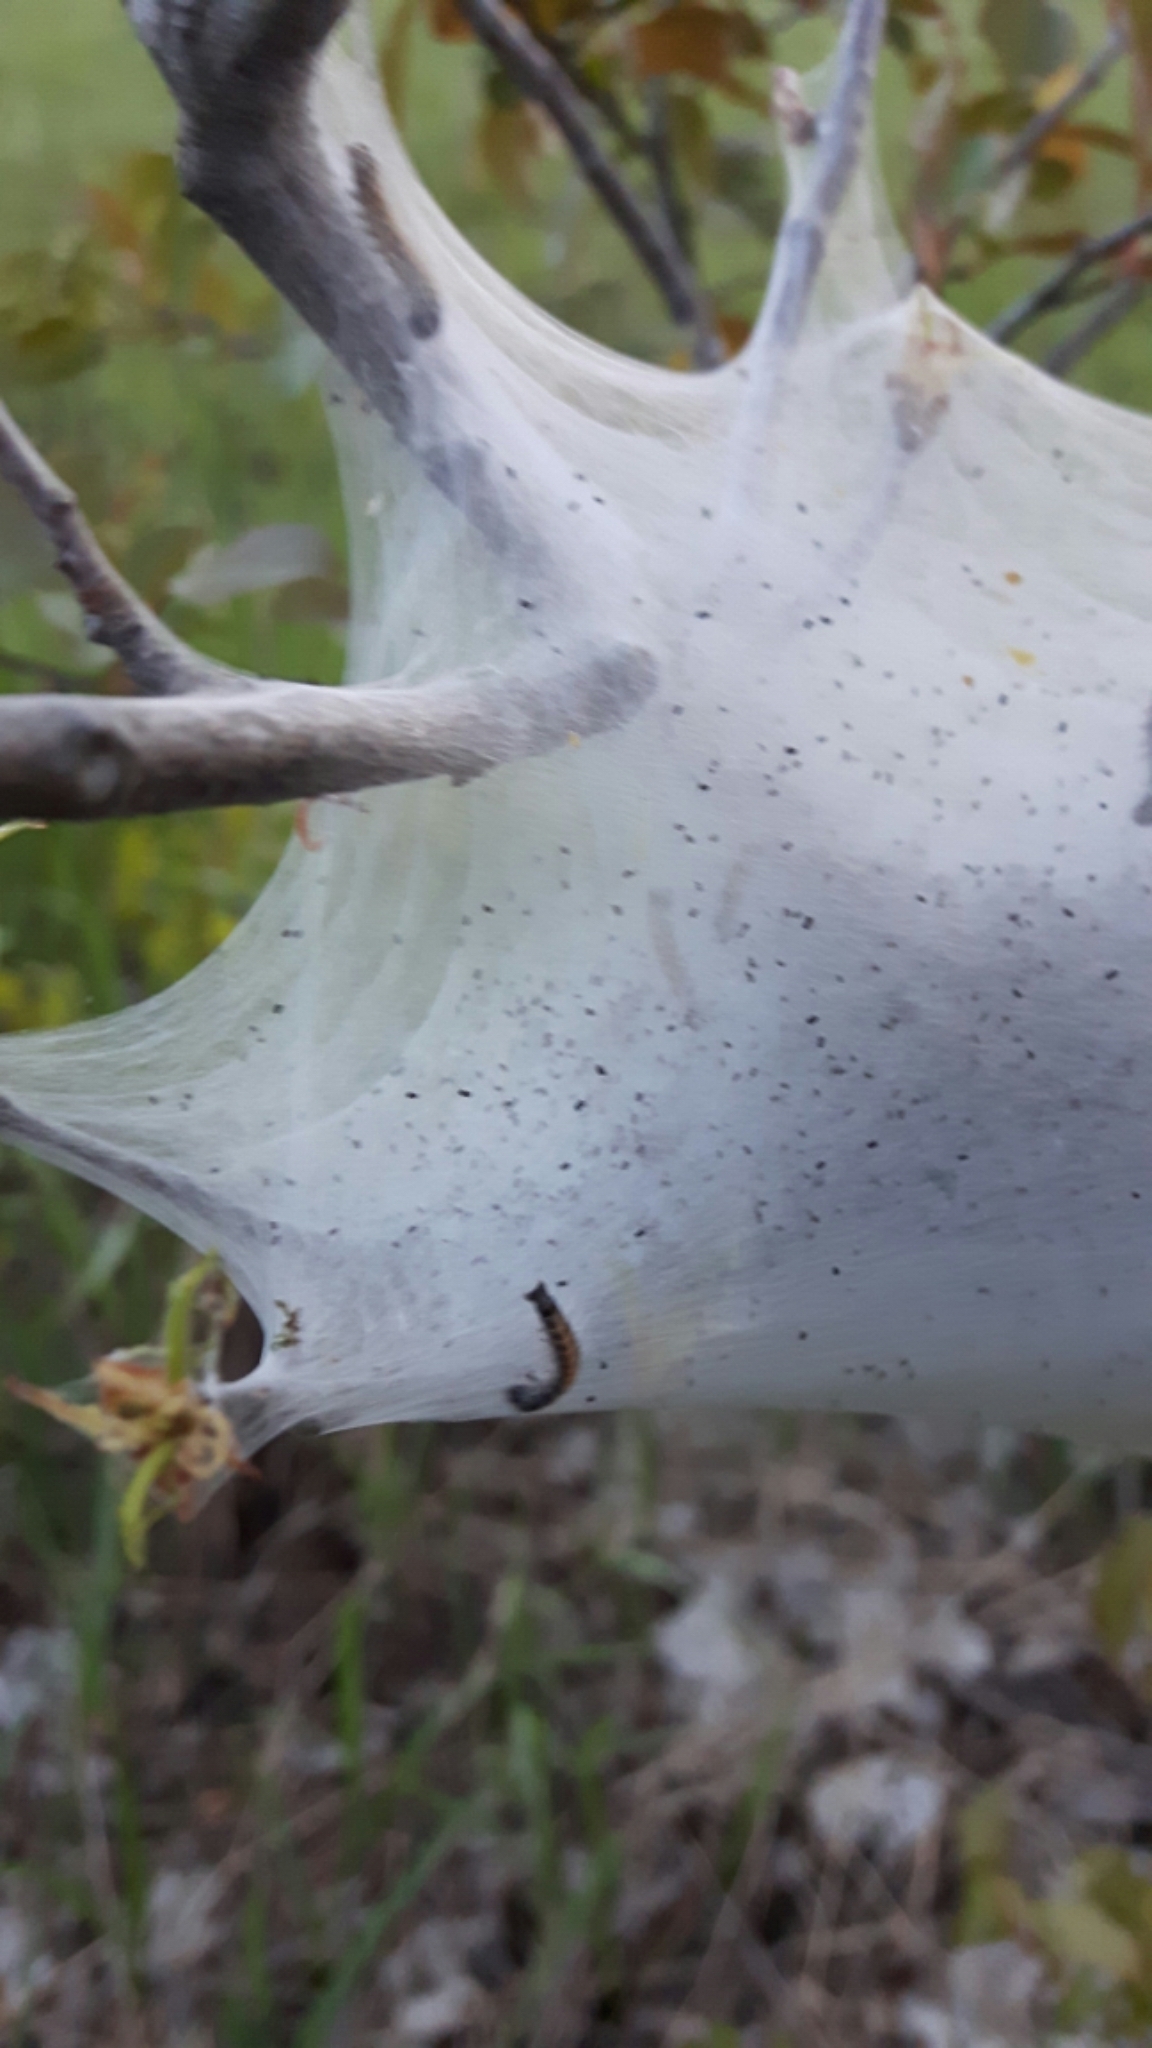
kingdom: Animalia
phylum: Arthropoda
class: Insecta
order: Lepidoptera
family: Lasiocampidae
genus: Malacosoma
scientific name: Malacosoma americana
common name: Eastern tent caterpillar moth
